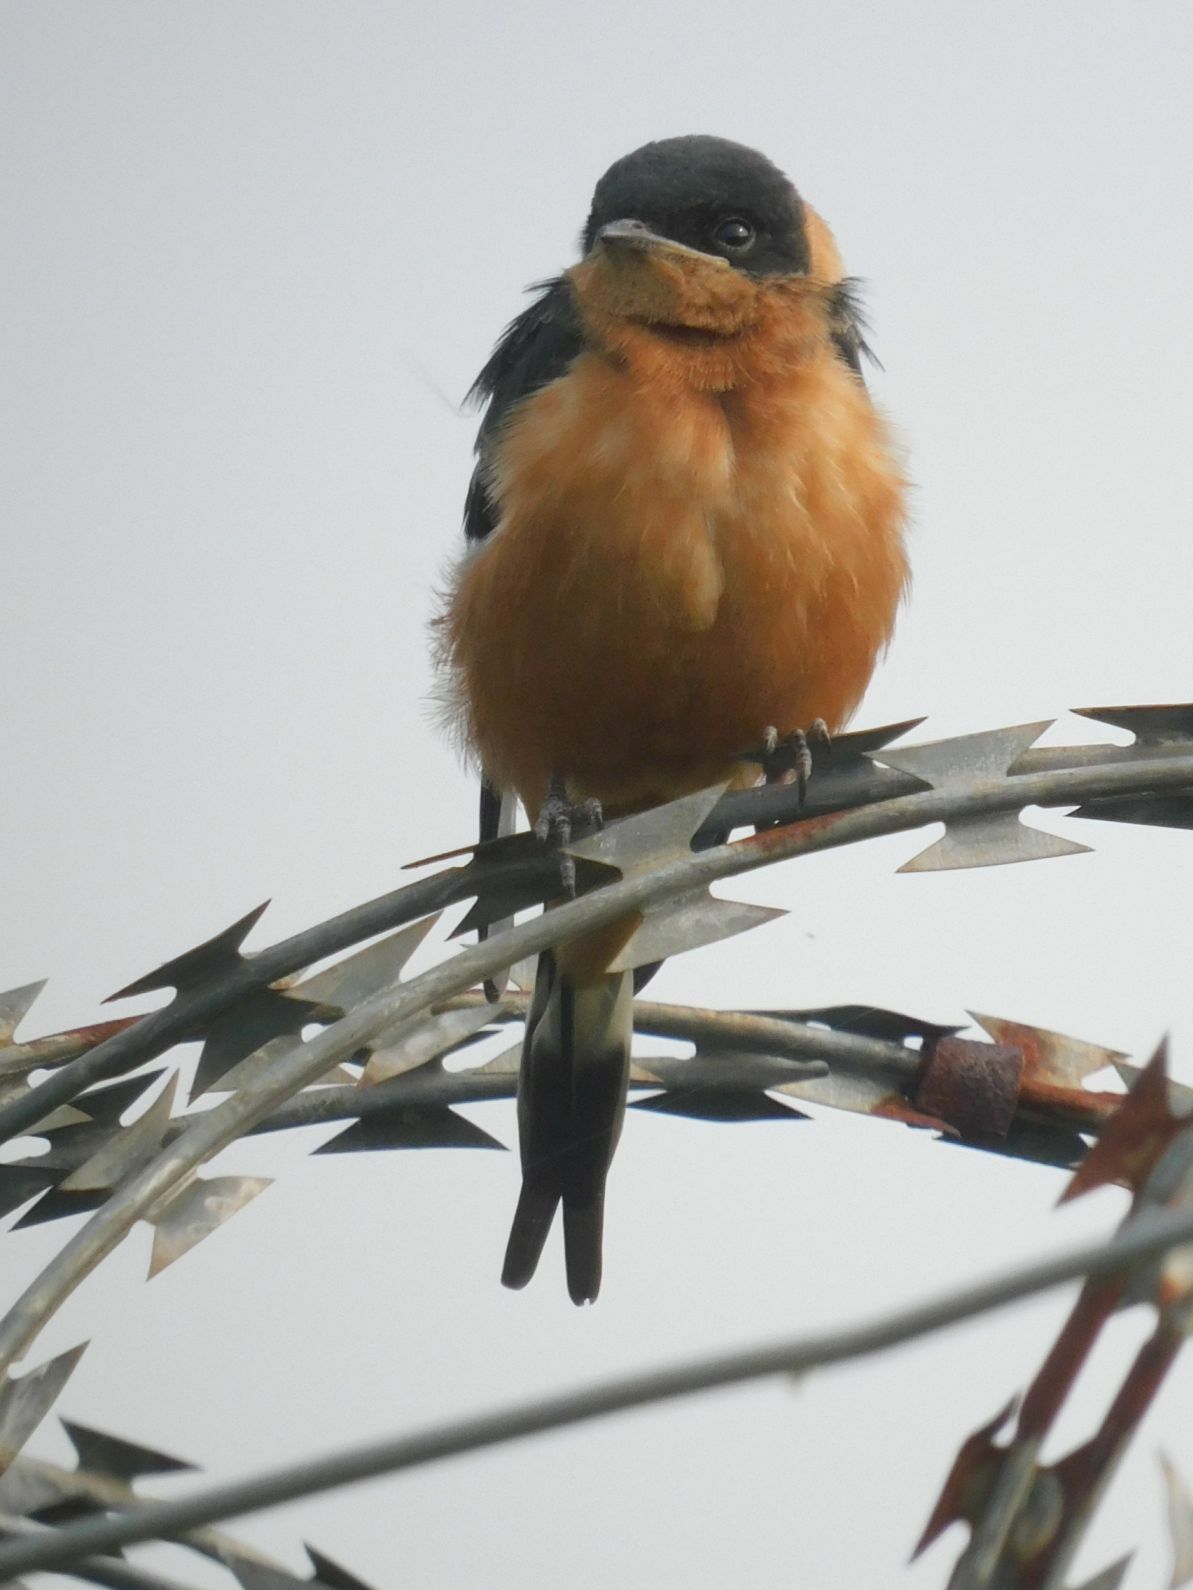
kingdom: Animalia
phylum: Chordata
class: Aves
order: Passeriformes
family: Hirundinidae
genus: Cecropis
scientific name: Cecropis semirufa
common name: Red-breasted swallow
